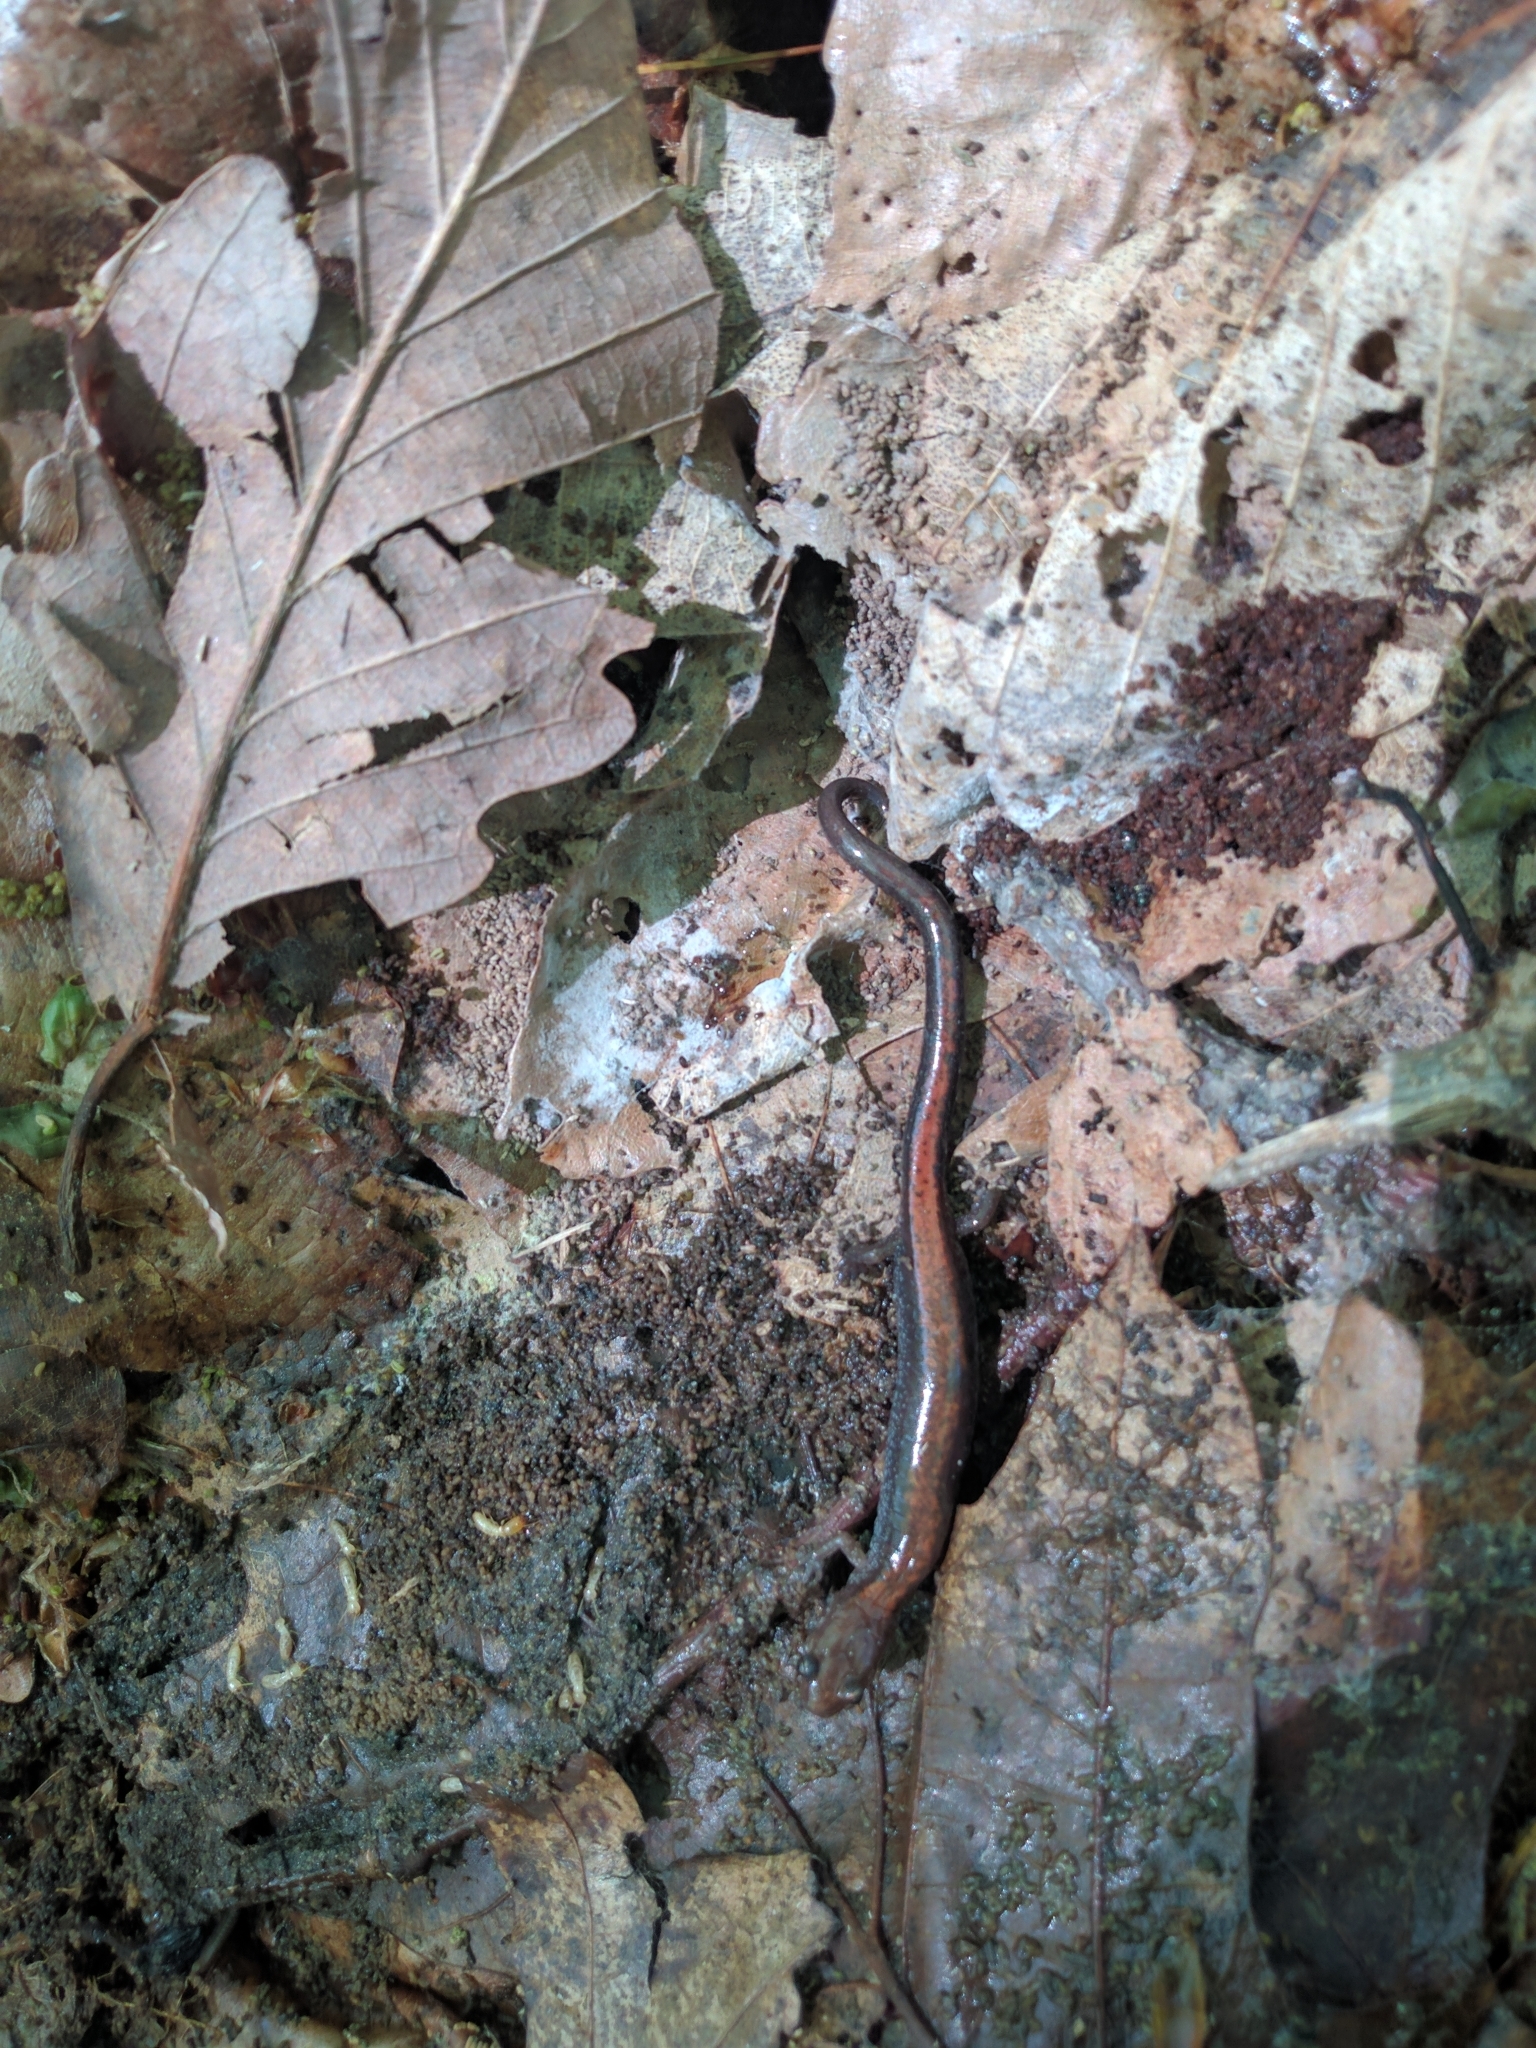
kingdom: Animalia
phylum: Chordata
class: Amphibia
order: Caudata
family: Plethodontidae
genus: Plethodon
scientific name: Plethodon cinereus
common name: Redback salamander
